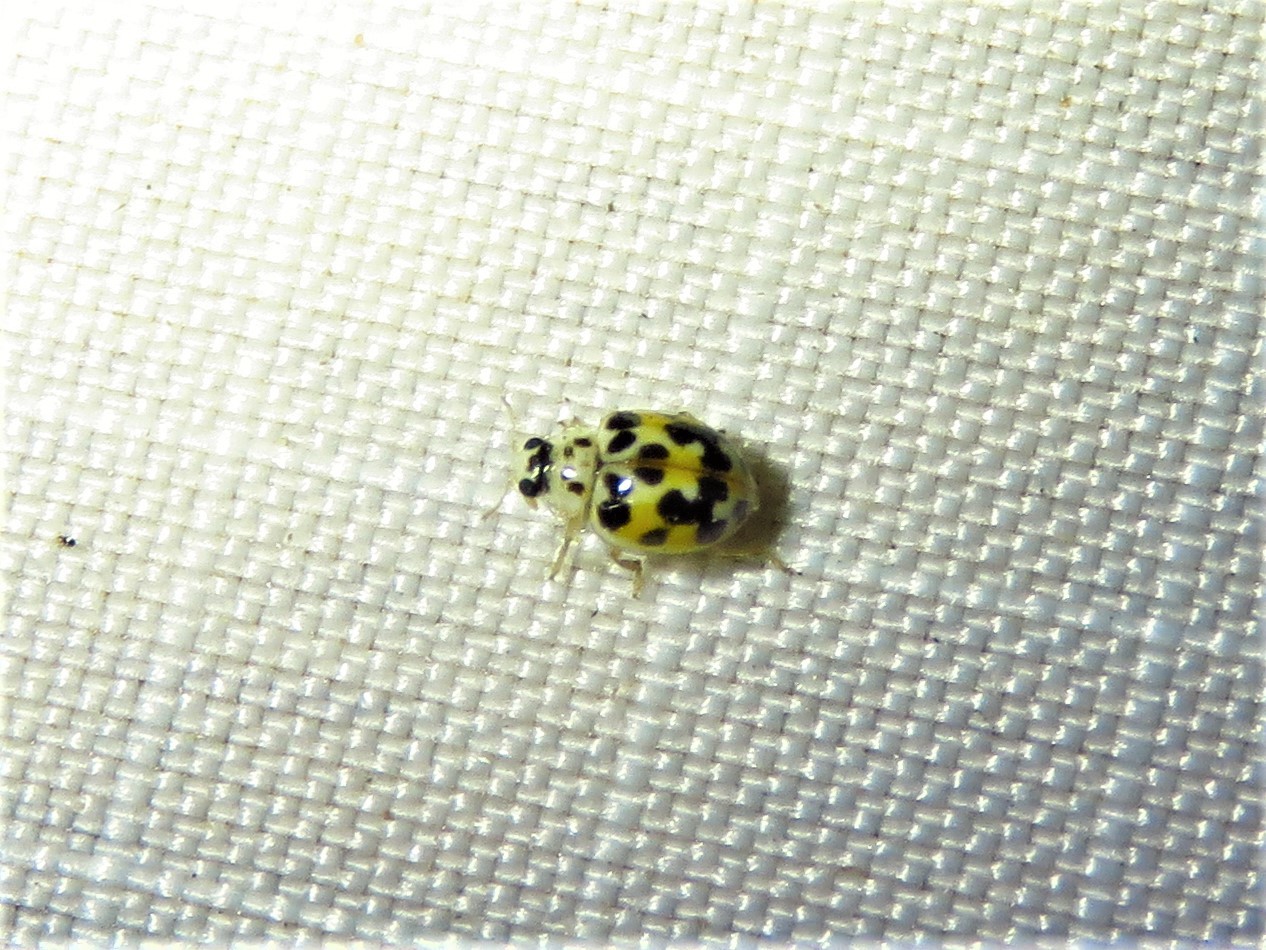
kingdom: Animalia
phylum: Arthropoda
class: Insecta
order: Coleoptera
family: Coccinellidae
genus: Psyllobora
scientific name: Psyllobora vigintimaculata
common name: Ladybird beetle
